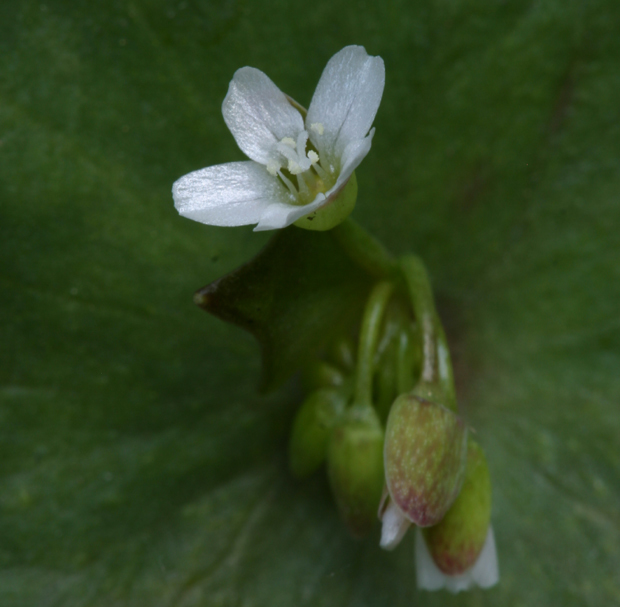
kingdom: Plantae
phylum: Tracheophyta
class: Magnoliopsida
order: Caryophyllales
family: Montiaceae
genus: Claytonia
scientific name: Claytonia perfoliata
